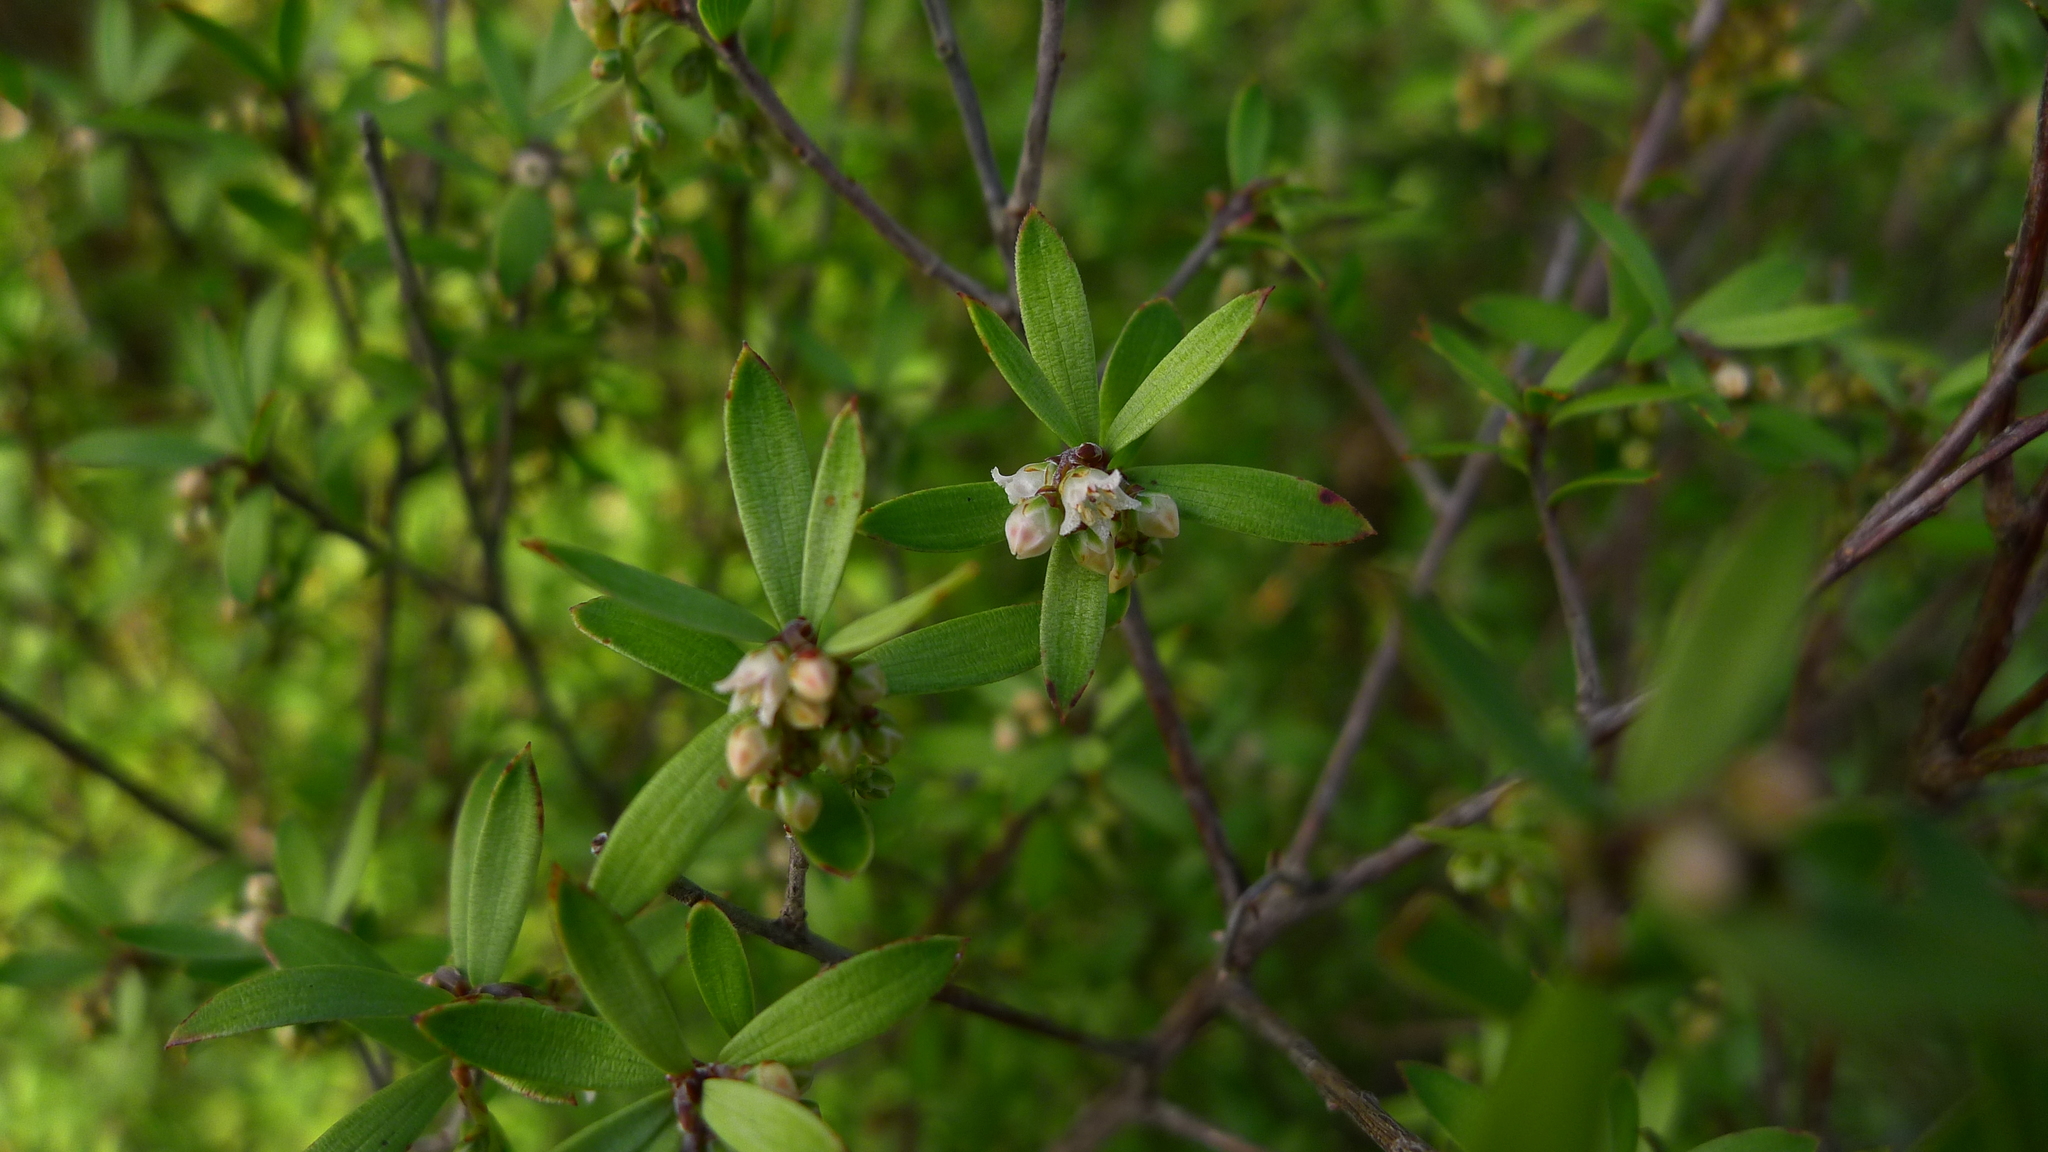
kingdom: Plantae
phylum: Tracheophyta
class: Magnoliopsida
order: Ericales
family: Ericaceae
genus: Leucopogon
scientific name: Leucopogon fasciculatus
